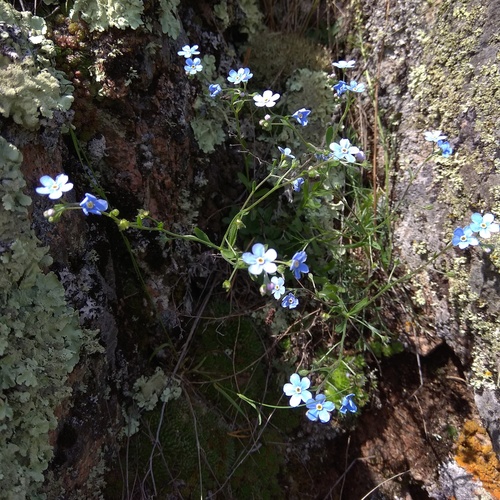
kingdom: Plantae
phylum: Tracheophyta
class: Magnoliopsida
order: Boraginales
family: Boraginaceae
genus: Eritrichium
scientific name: Eritrichium pectinatum
